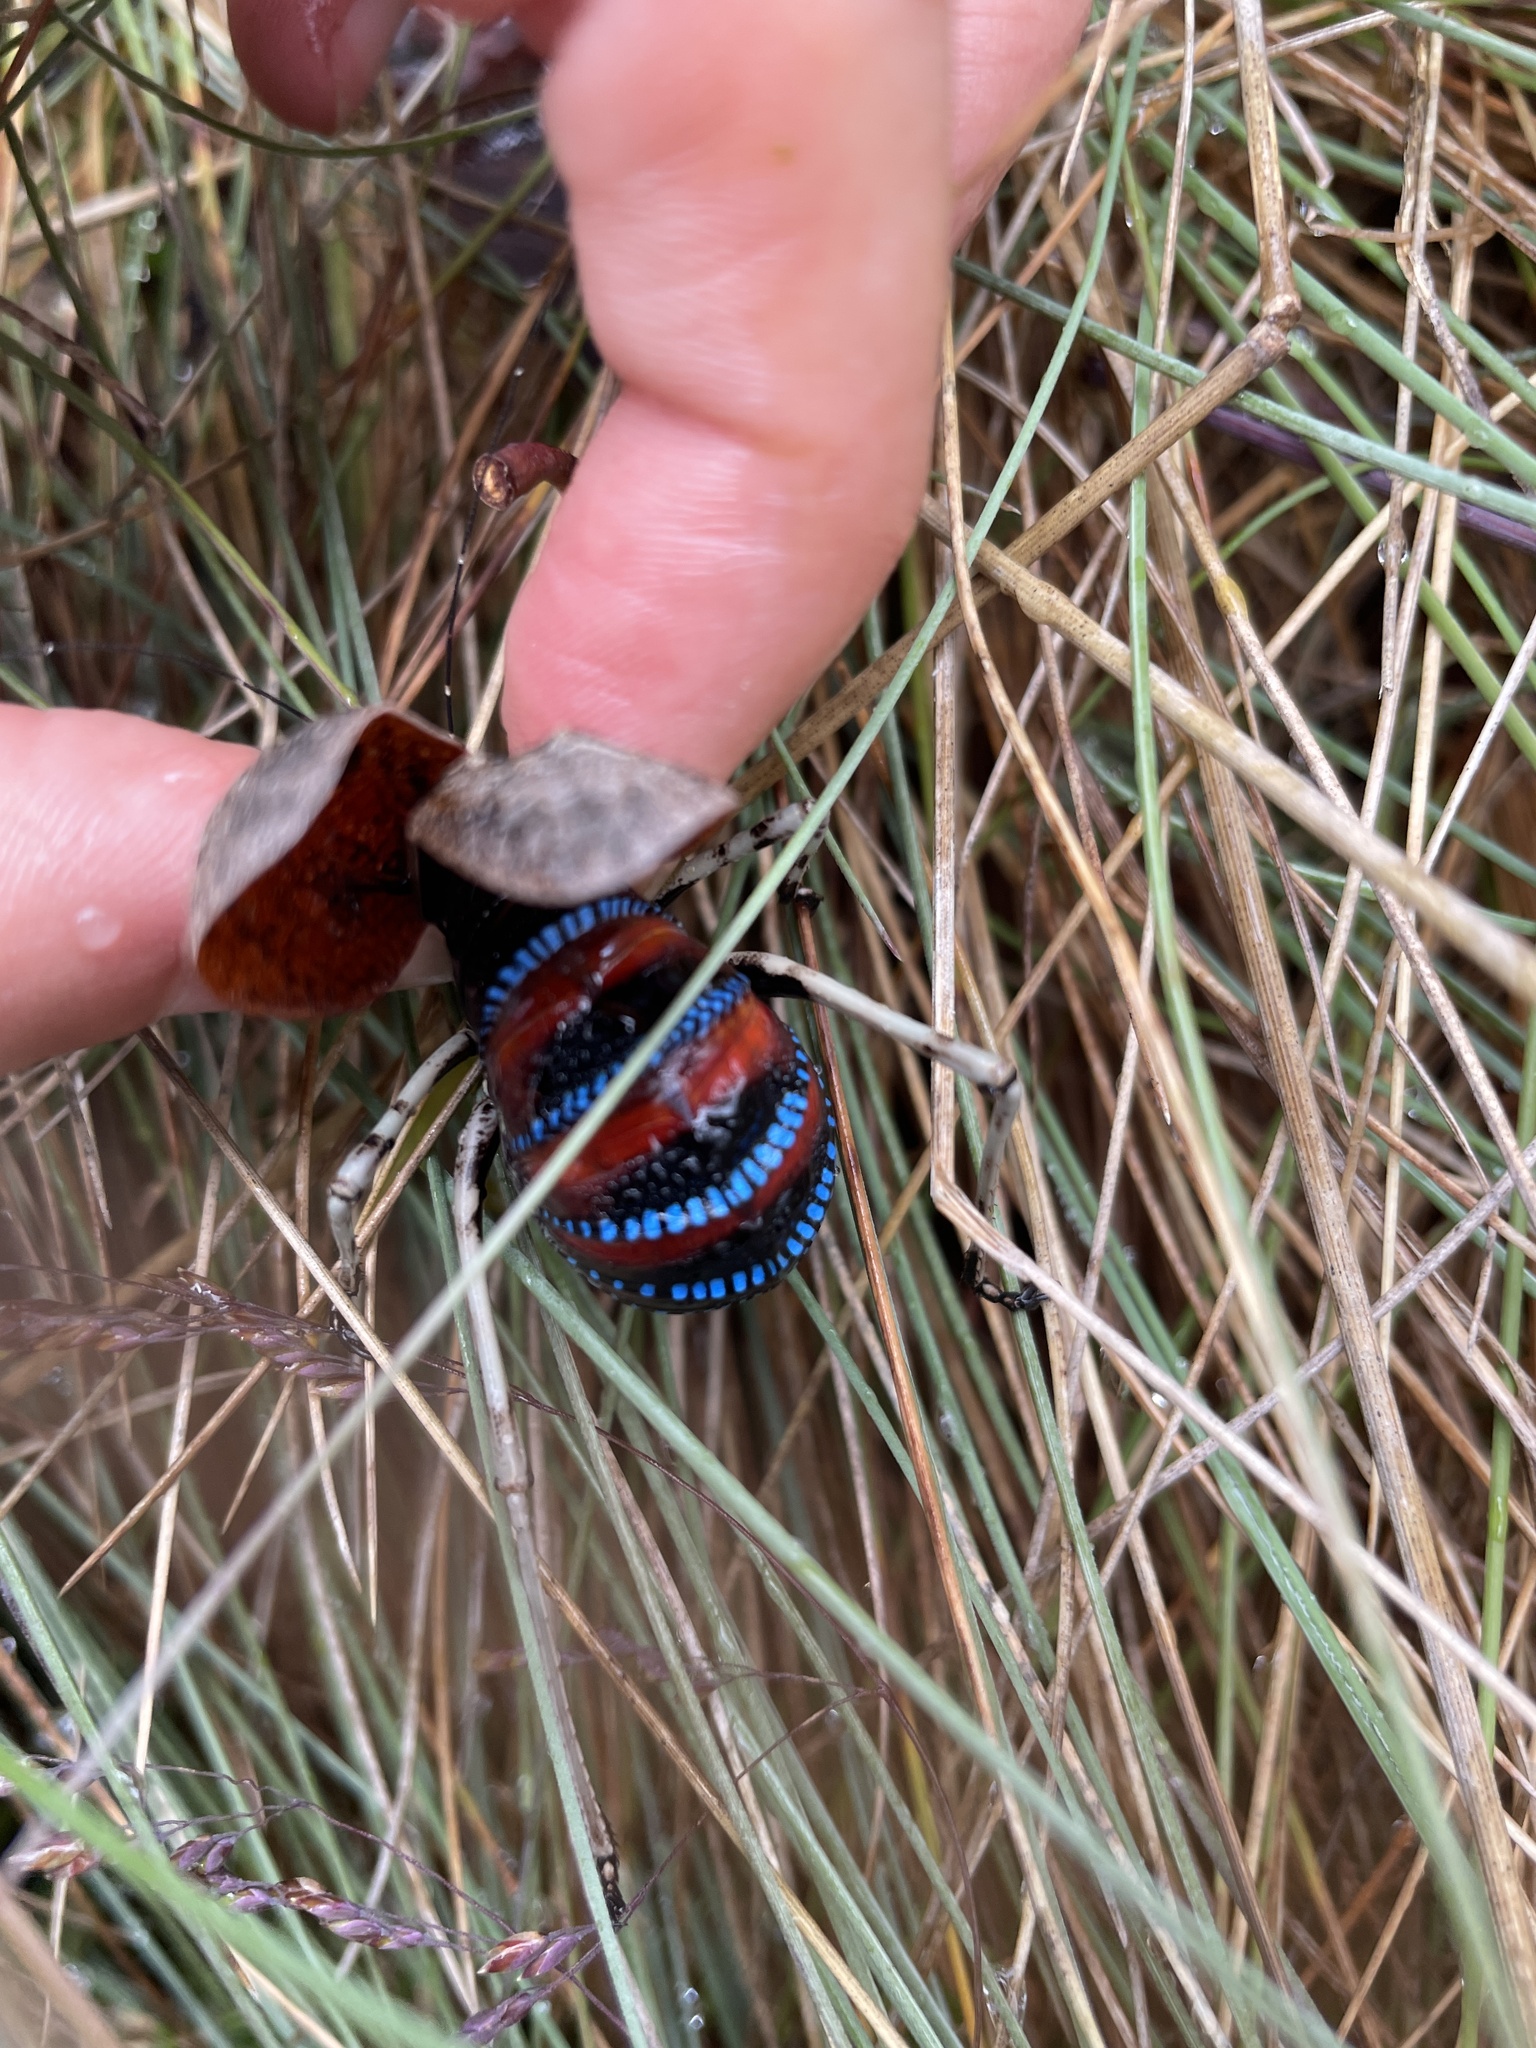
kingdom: Animalia
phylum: Arthropoda
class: Insecta
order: Orthoptera
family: Tettigoniidae
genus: Acripeza
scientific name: Acripeza reticulata
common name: Mountain katydid
